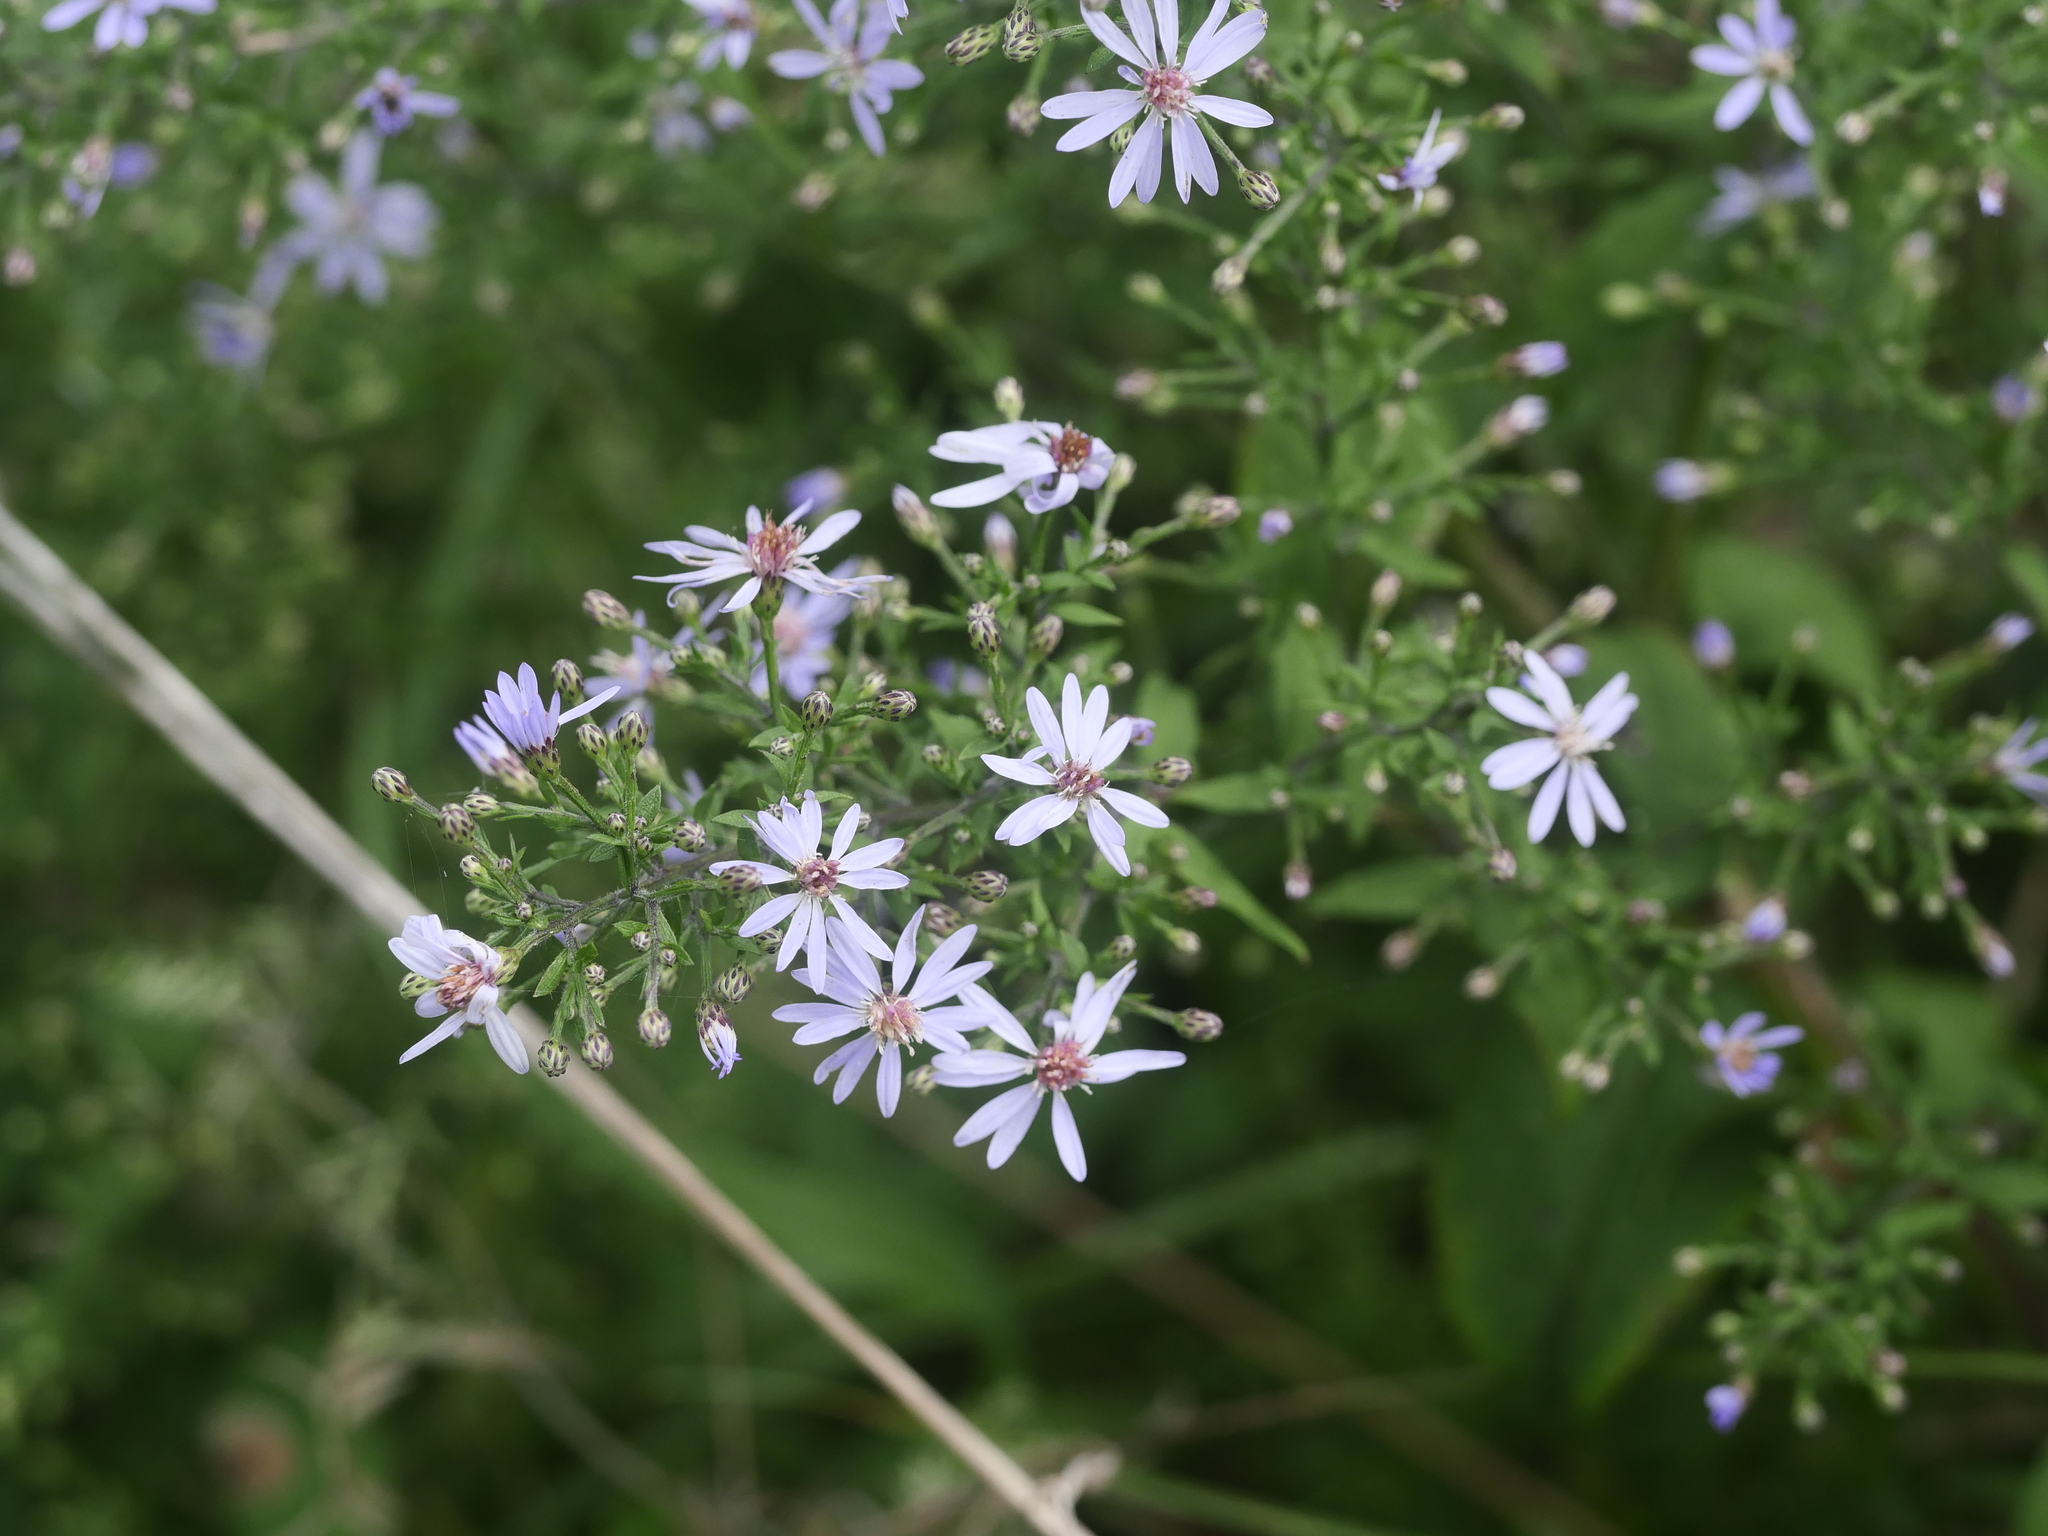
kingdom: Plantae
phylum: Tracheophyta
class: Magnoliopsida
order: Asterales
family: Asteraceae
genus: Symphyotrichum
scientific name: Symphyotrichum cordifolium
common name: Beeweed
